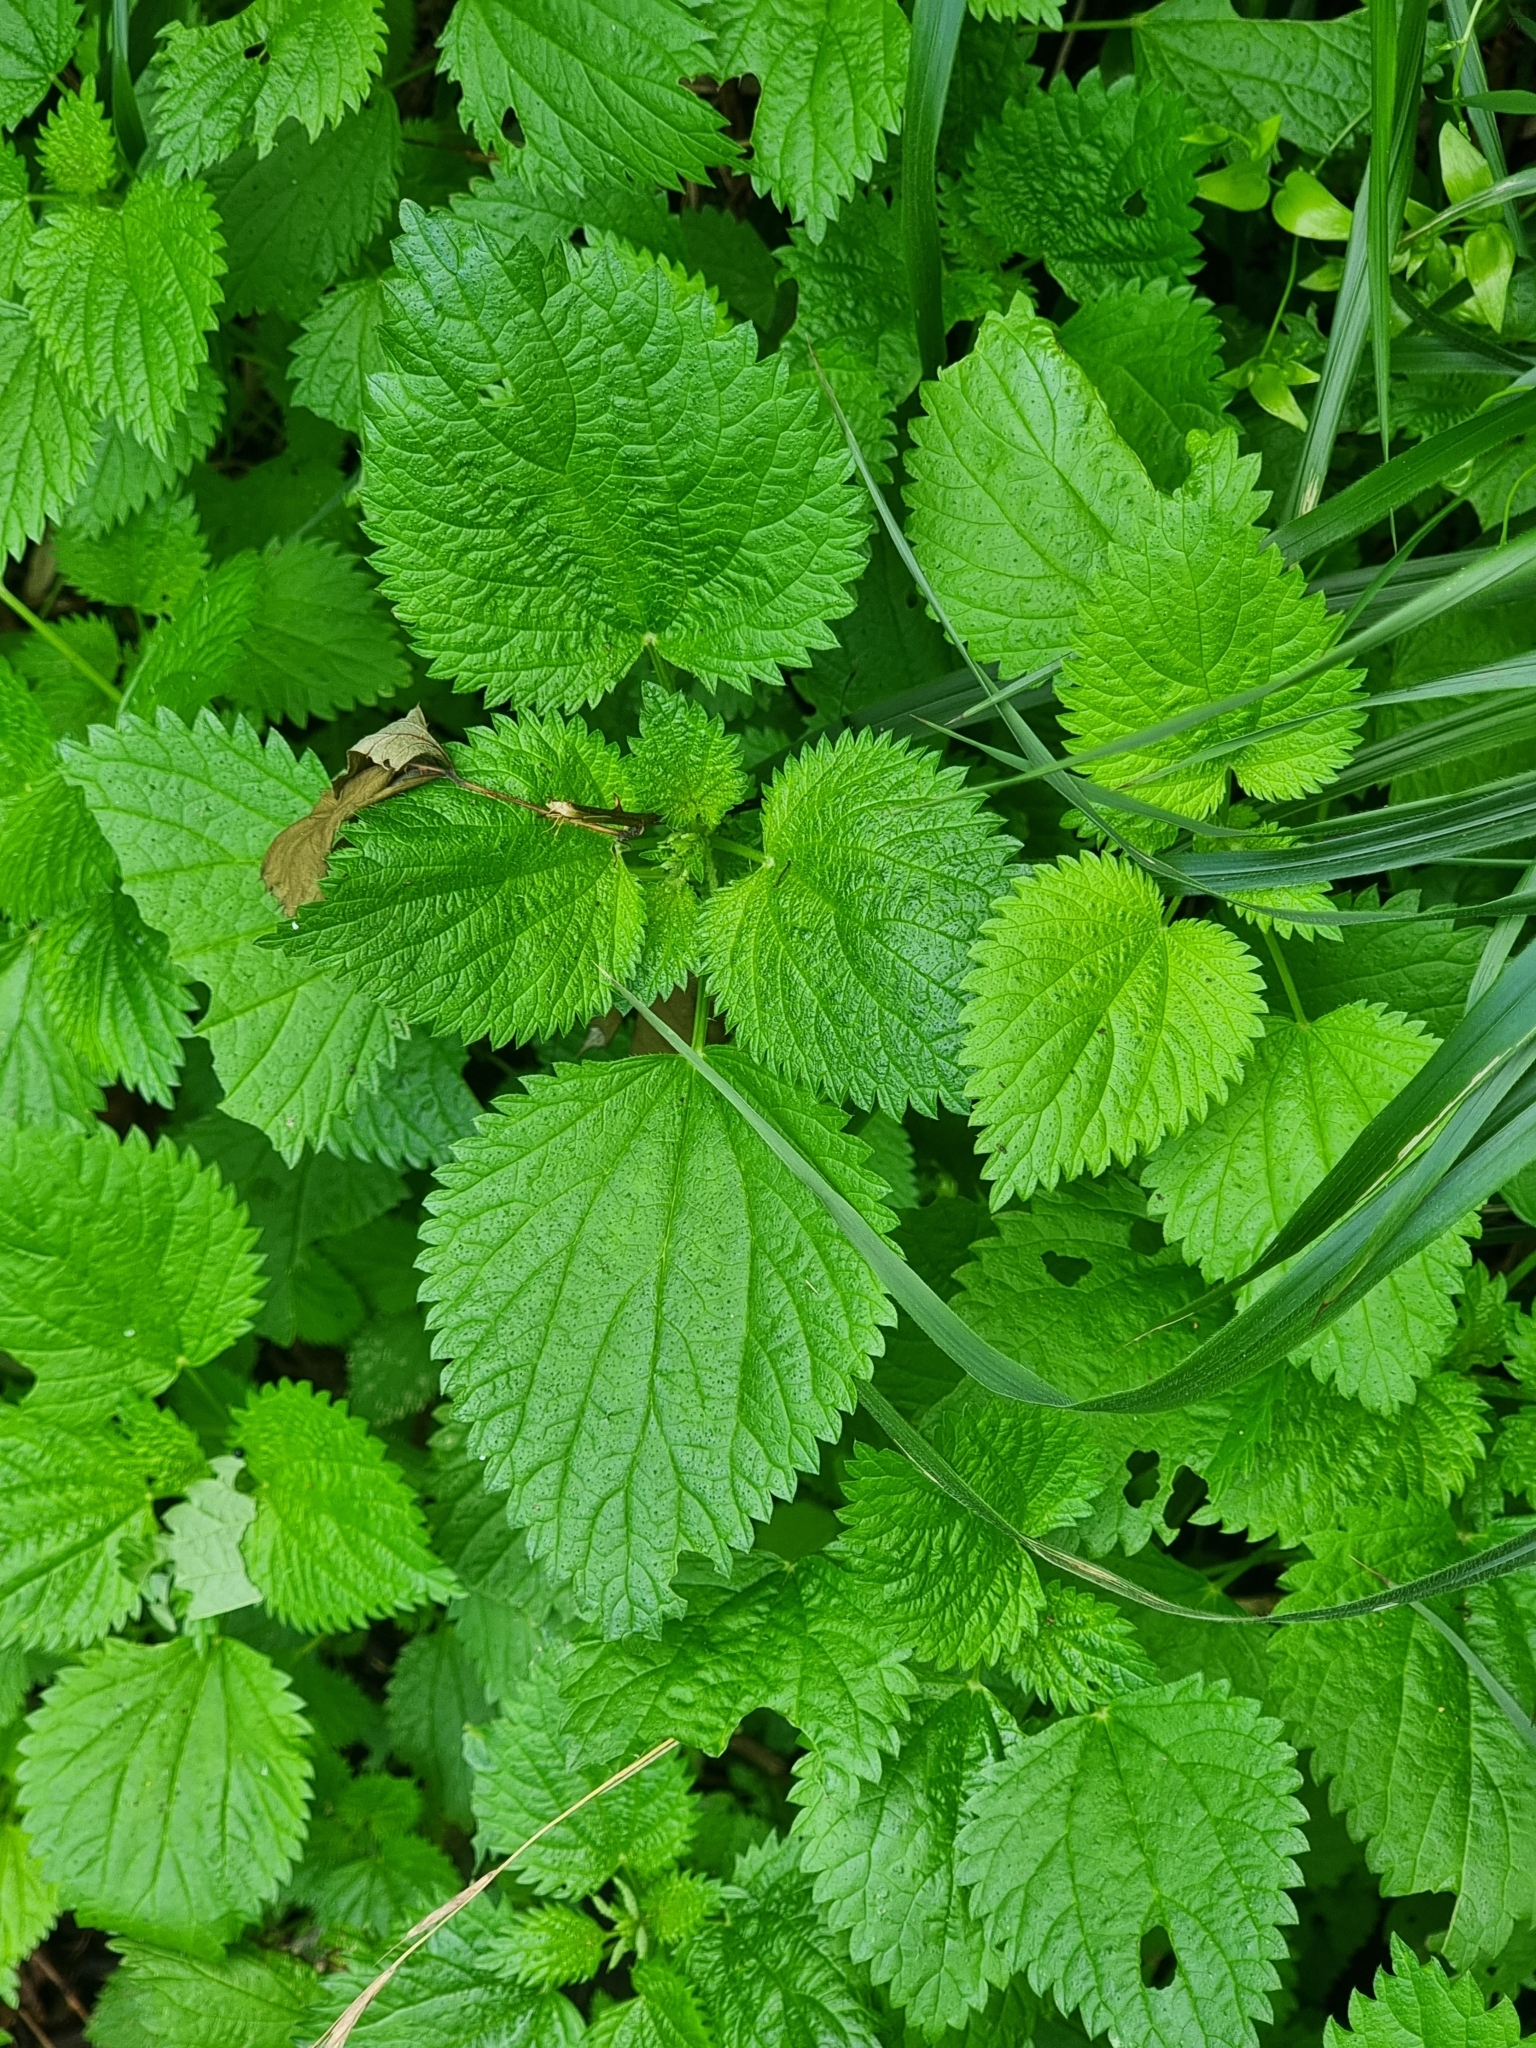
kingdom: Plantae
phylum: Tracheophyta
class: Magnoliopsida
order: Rosales
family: Urticaceae
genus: Urtica
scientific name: Urtica membranacea
